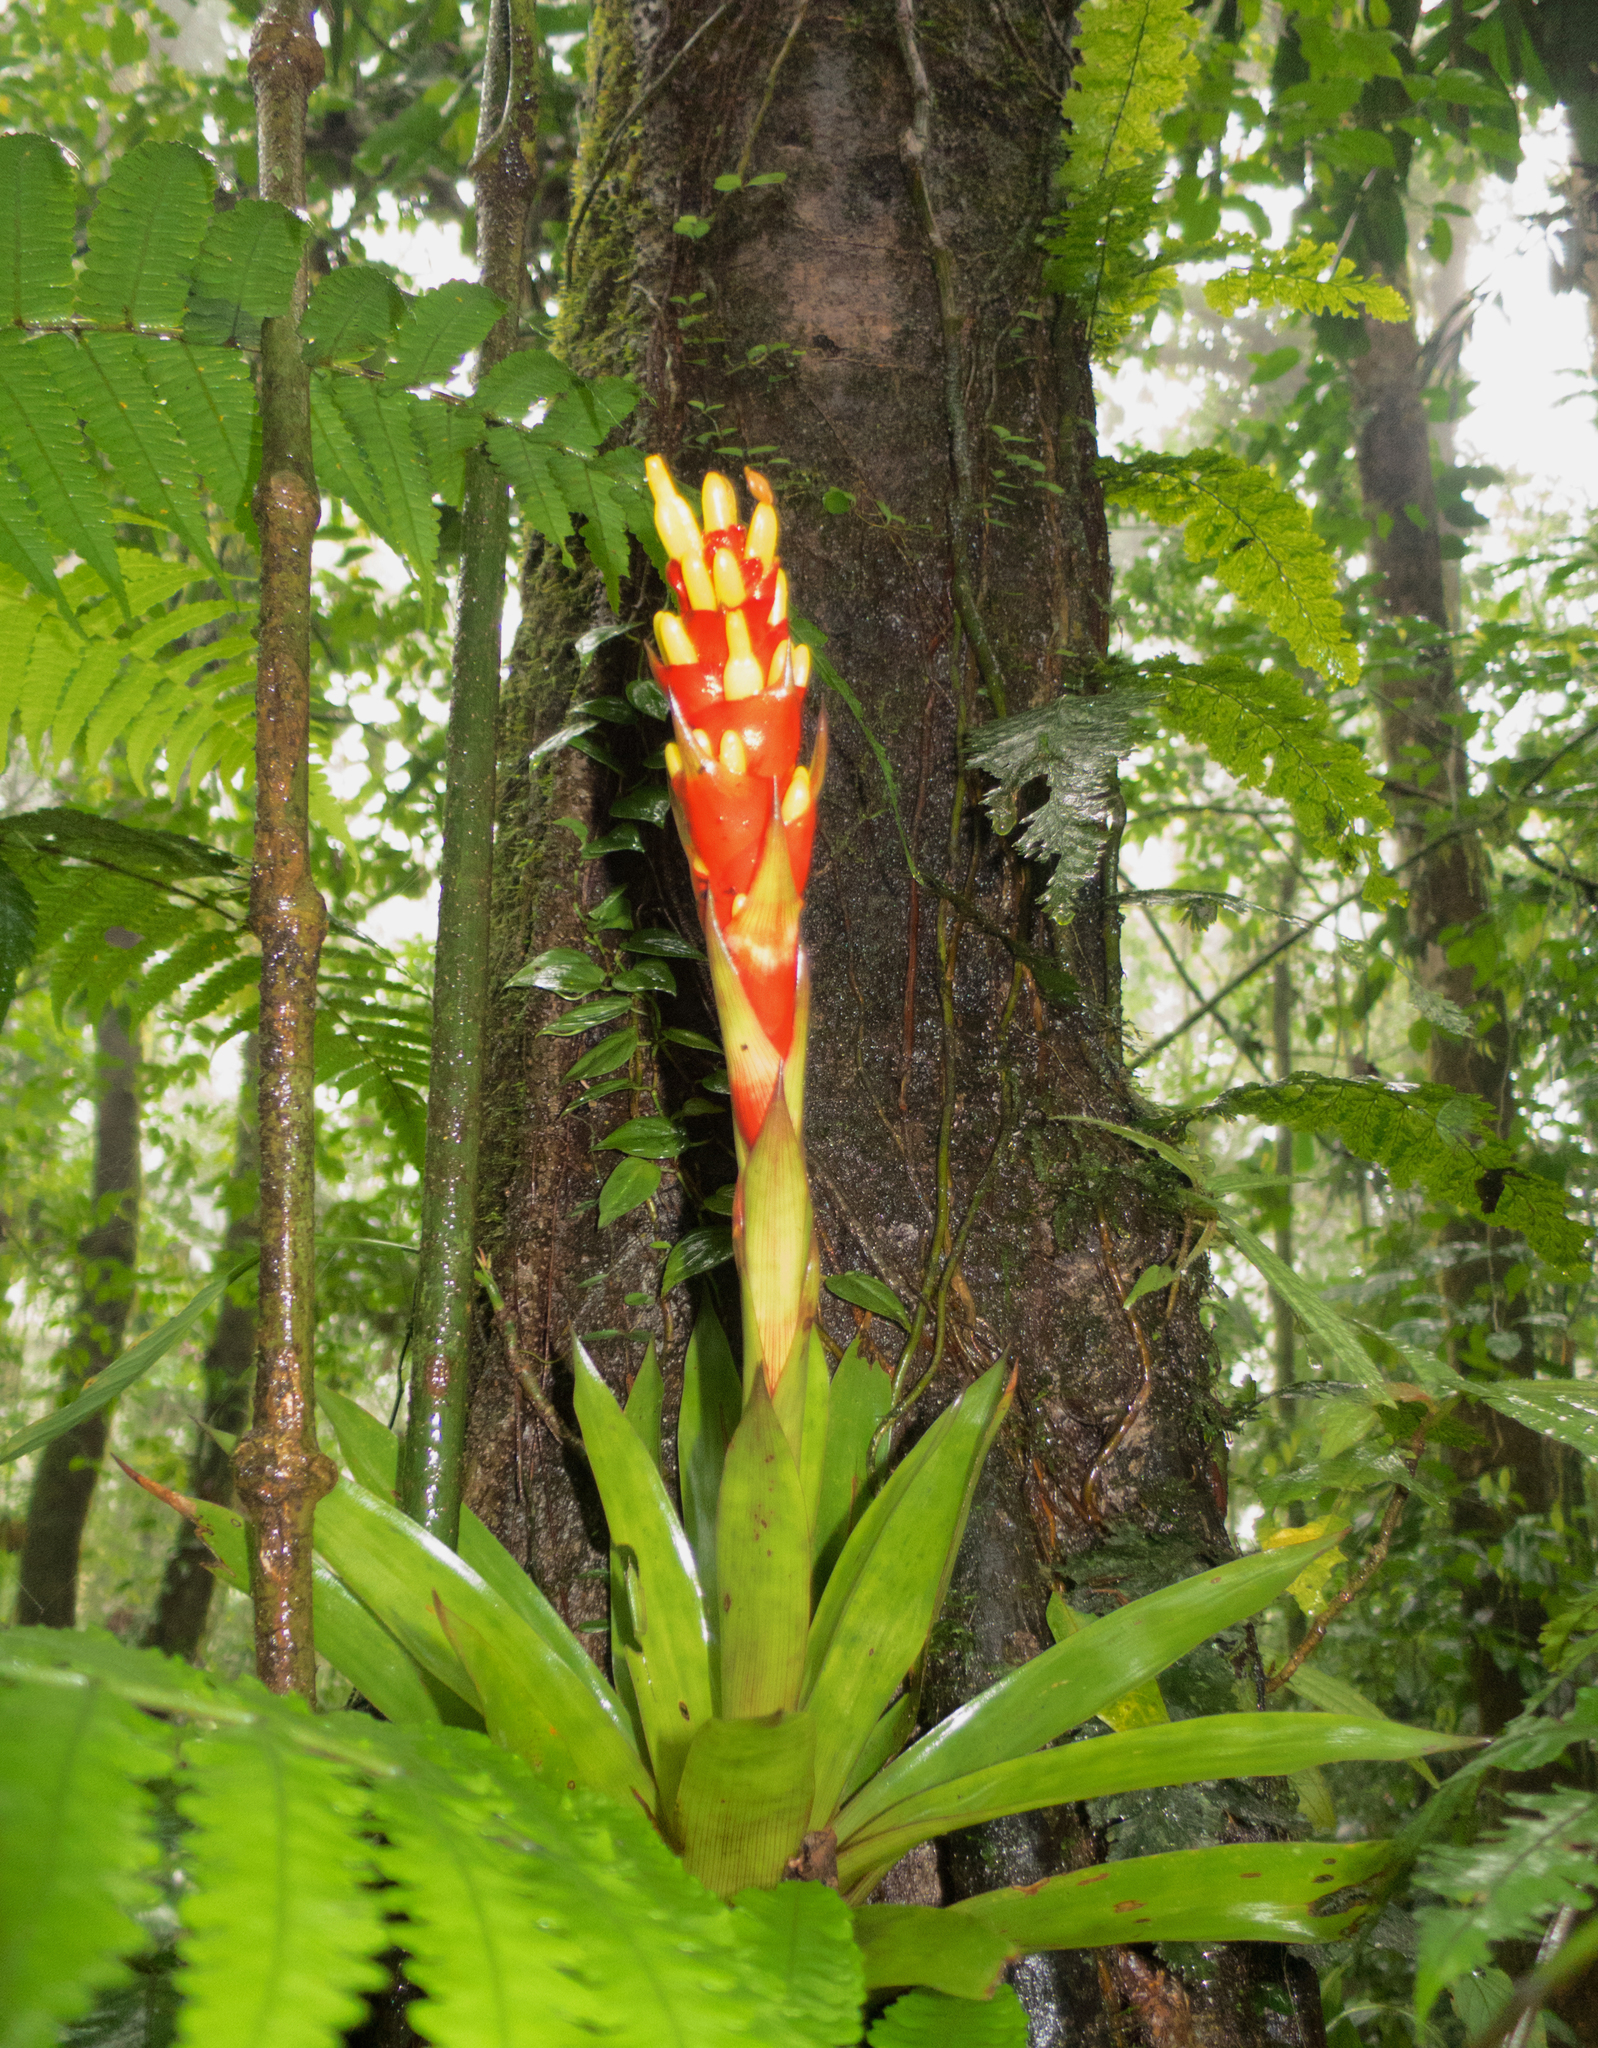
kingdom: Plantae
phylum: Tracheophyta
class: Liliopsida
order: Poales
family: Bromeliaceae
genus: Guzmania
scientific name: Guzmania donnellsmithii
